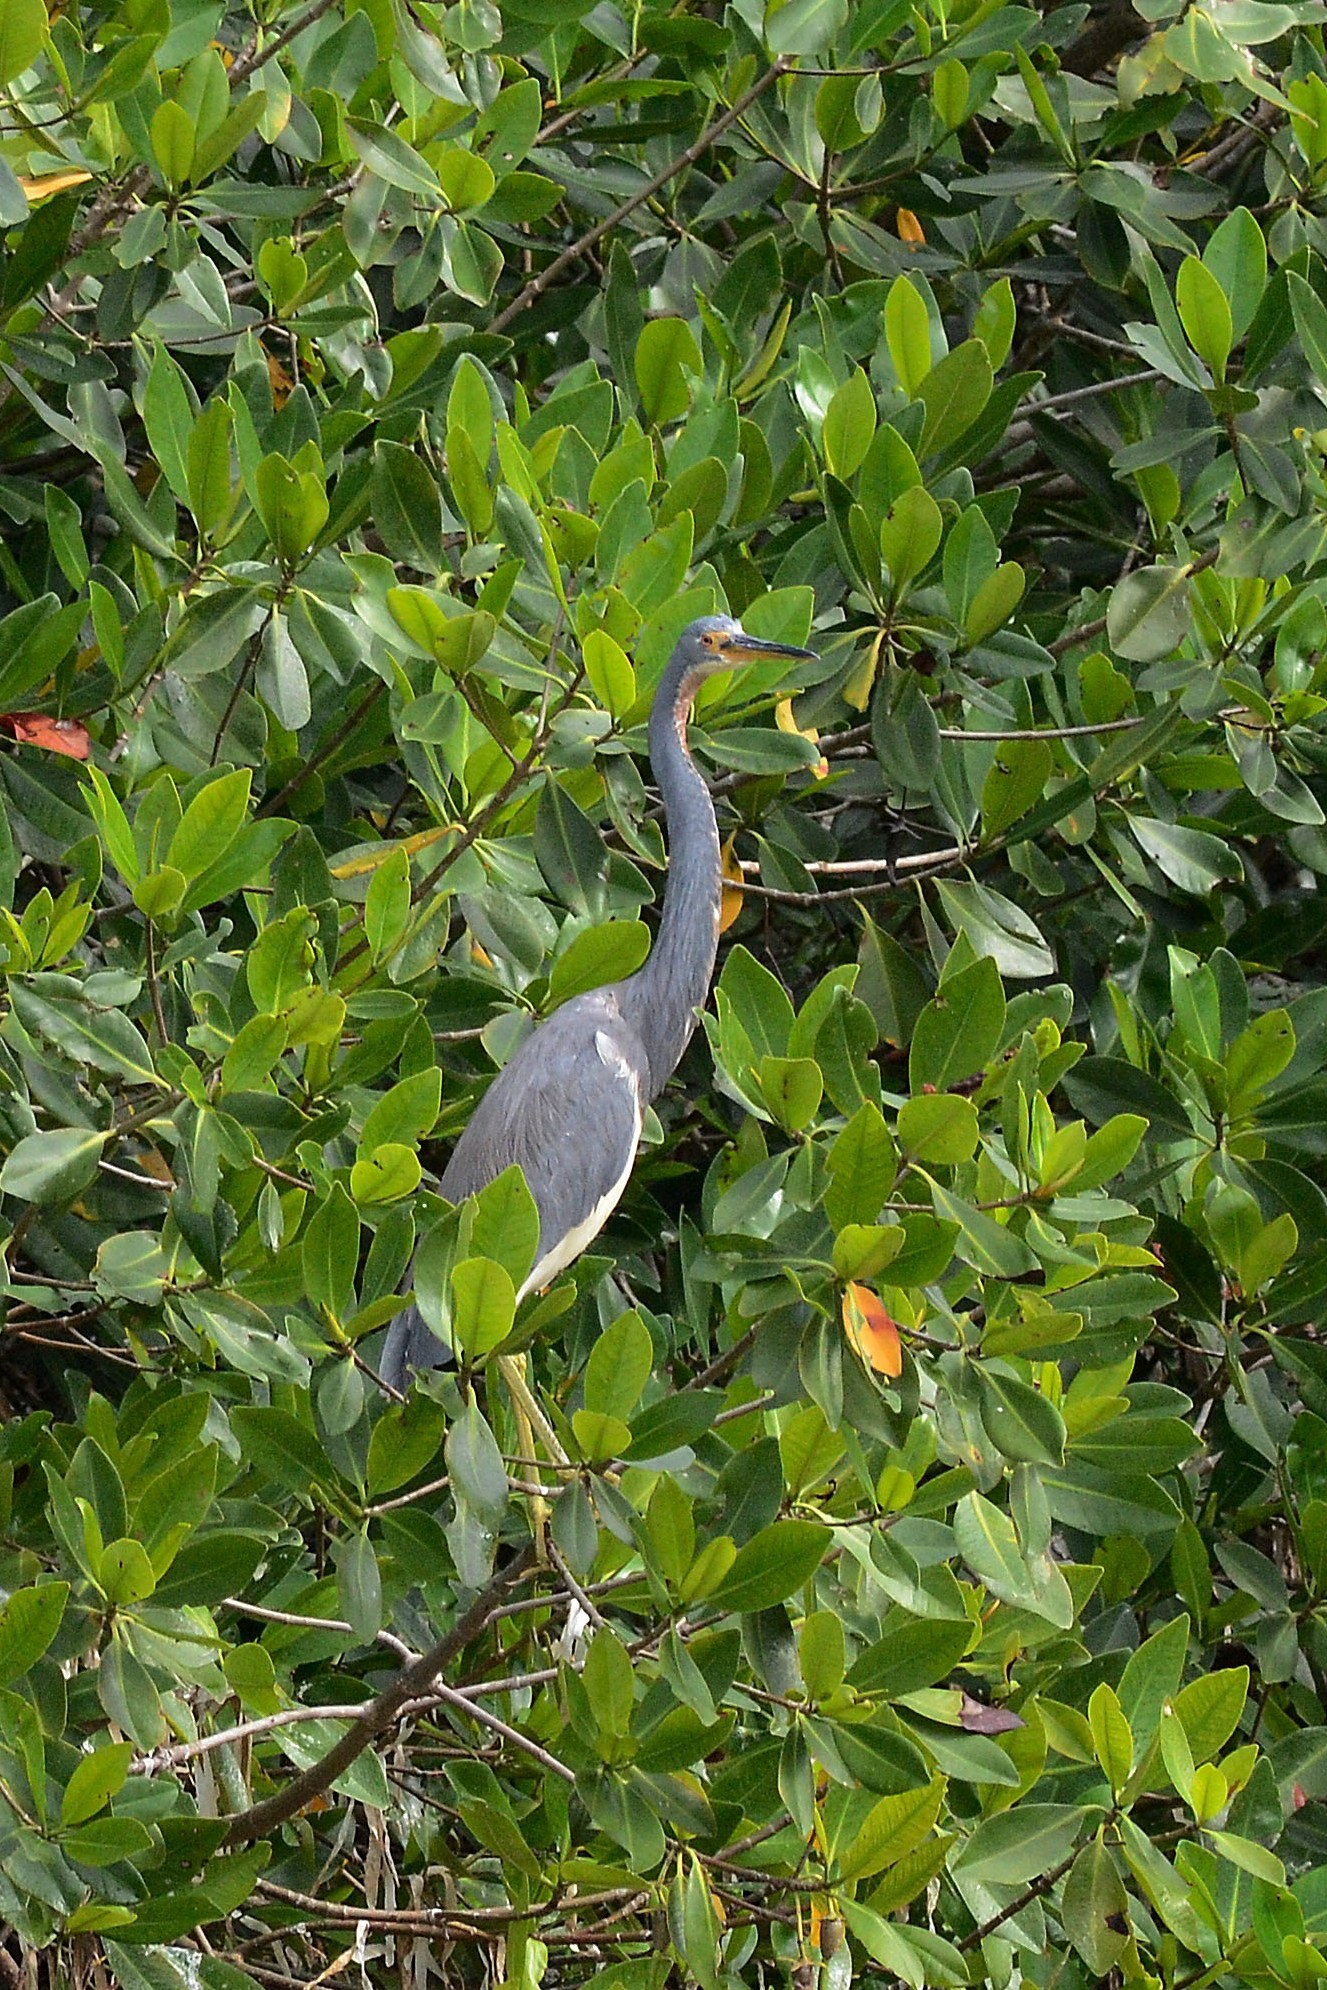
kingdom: Animalia
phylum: Chordata
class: Aves
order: Pelecaniformes
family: Ardeidae
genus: Egretta
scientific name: Egretta tricolor
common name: Tricolored heron
